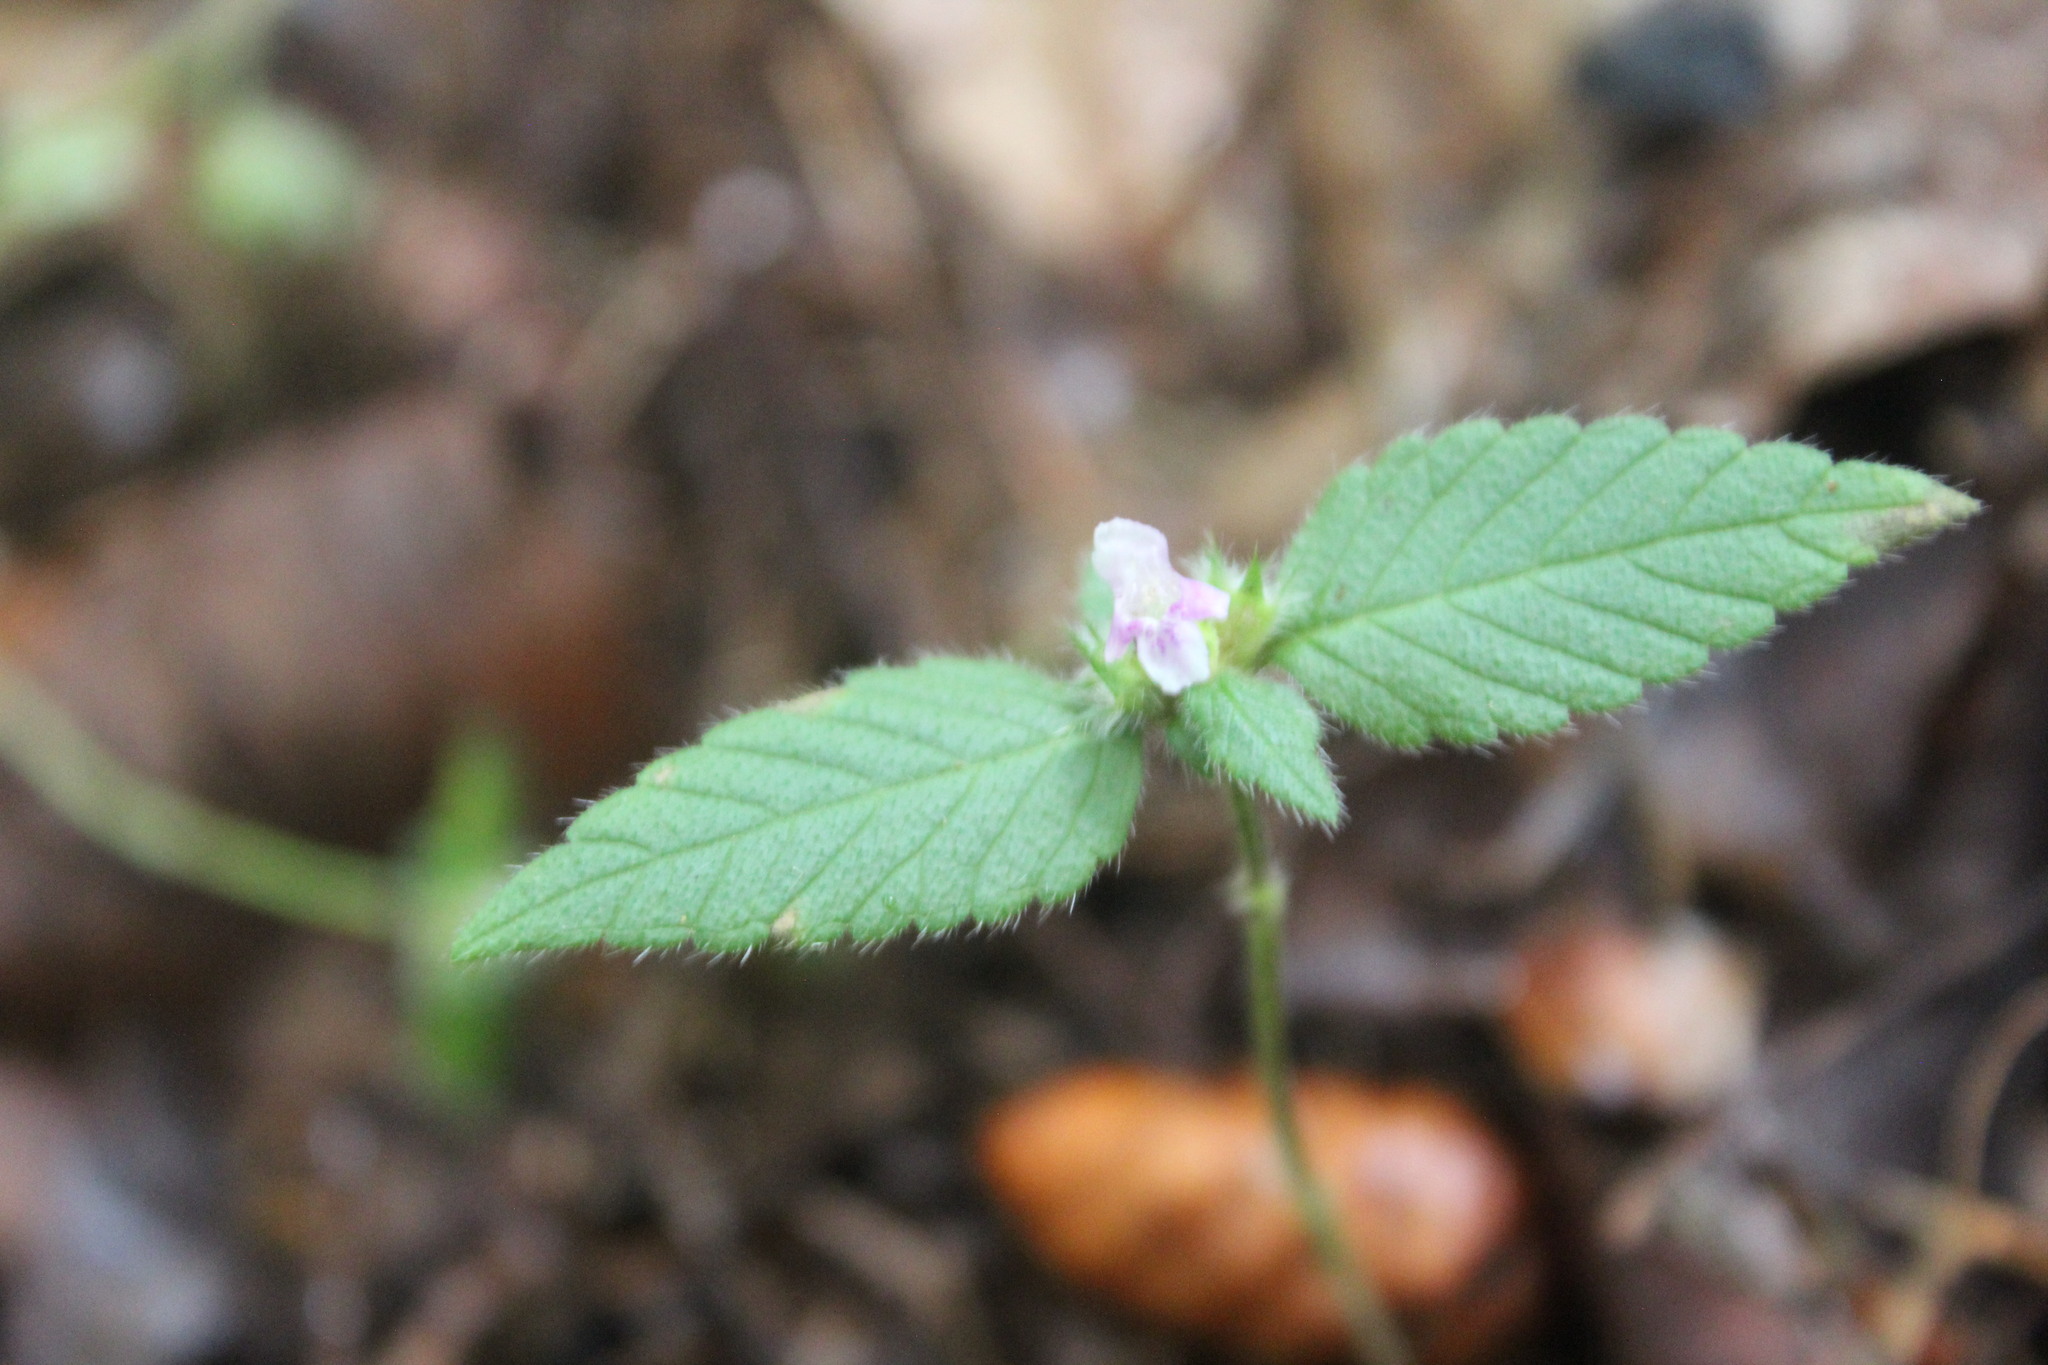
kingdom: Plantae
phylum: Tracheophyta
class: Magnoliopsida
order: Lamiales
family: Lamiaceae
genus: Galeopsis
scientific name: Galeopsis tetrahit
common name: Common hemp-nettle
